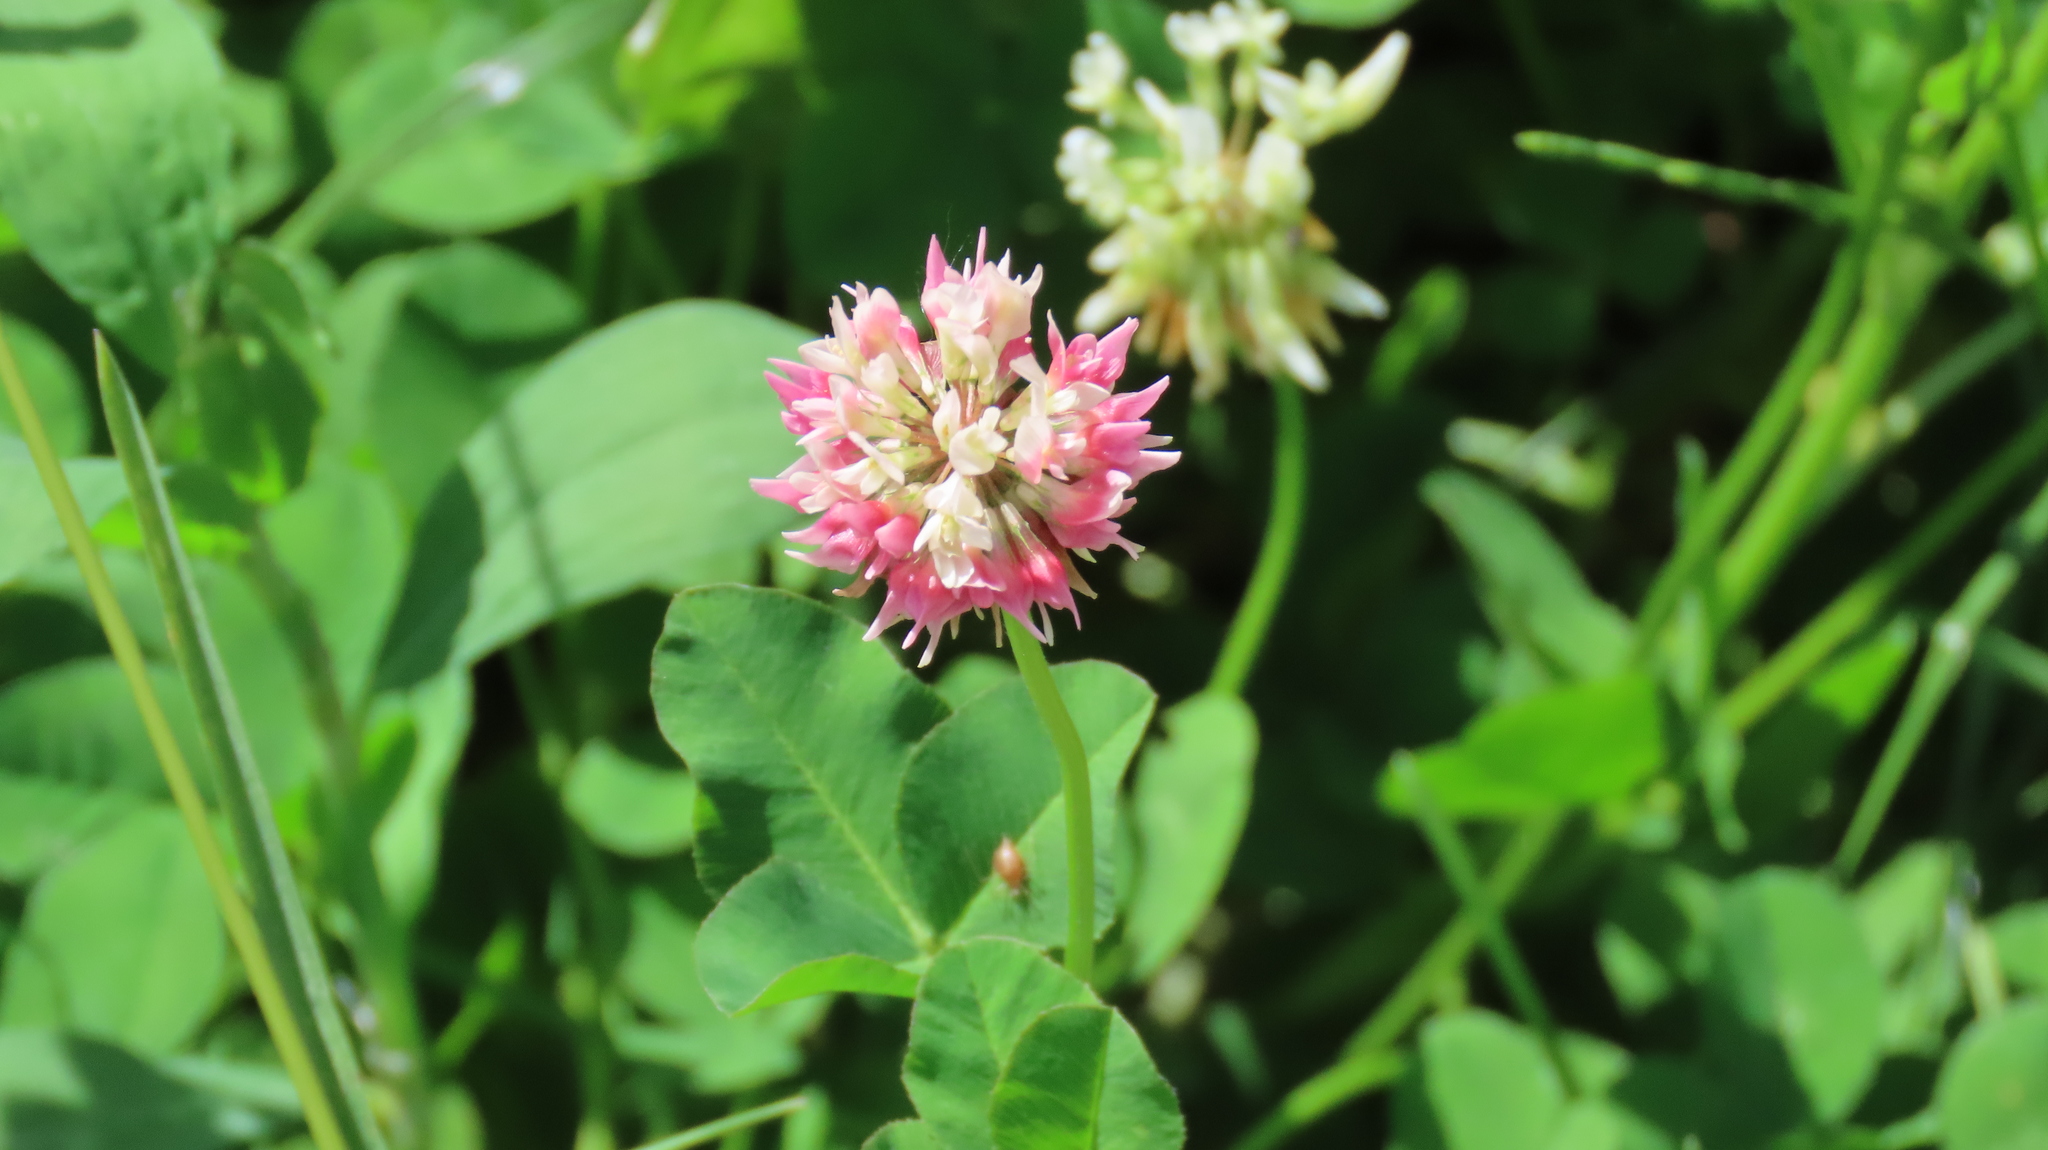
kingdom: Plantae
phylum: Tracheophyta
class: Magnoliopsida
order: Fabales
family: Fabaceae
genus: Trifolium
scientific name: Trifolium hybridum
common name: Alsike clover
